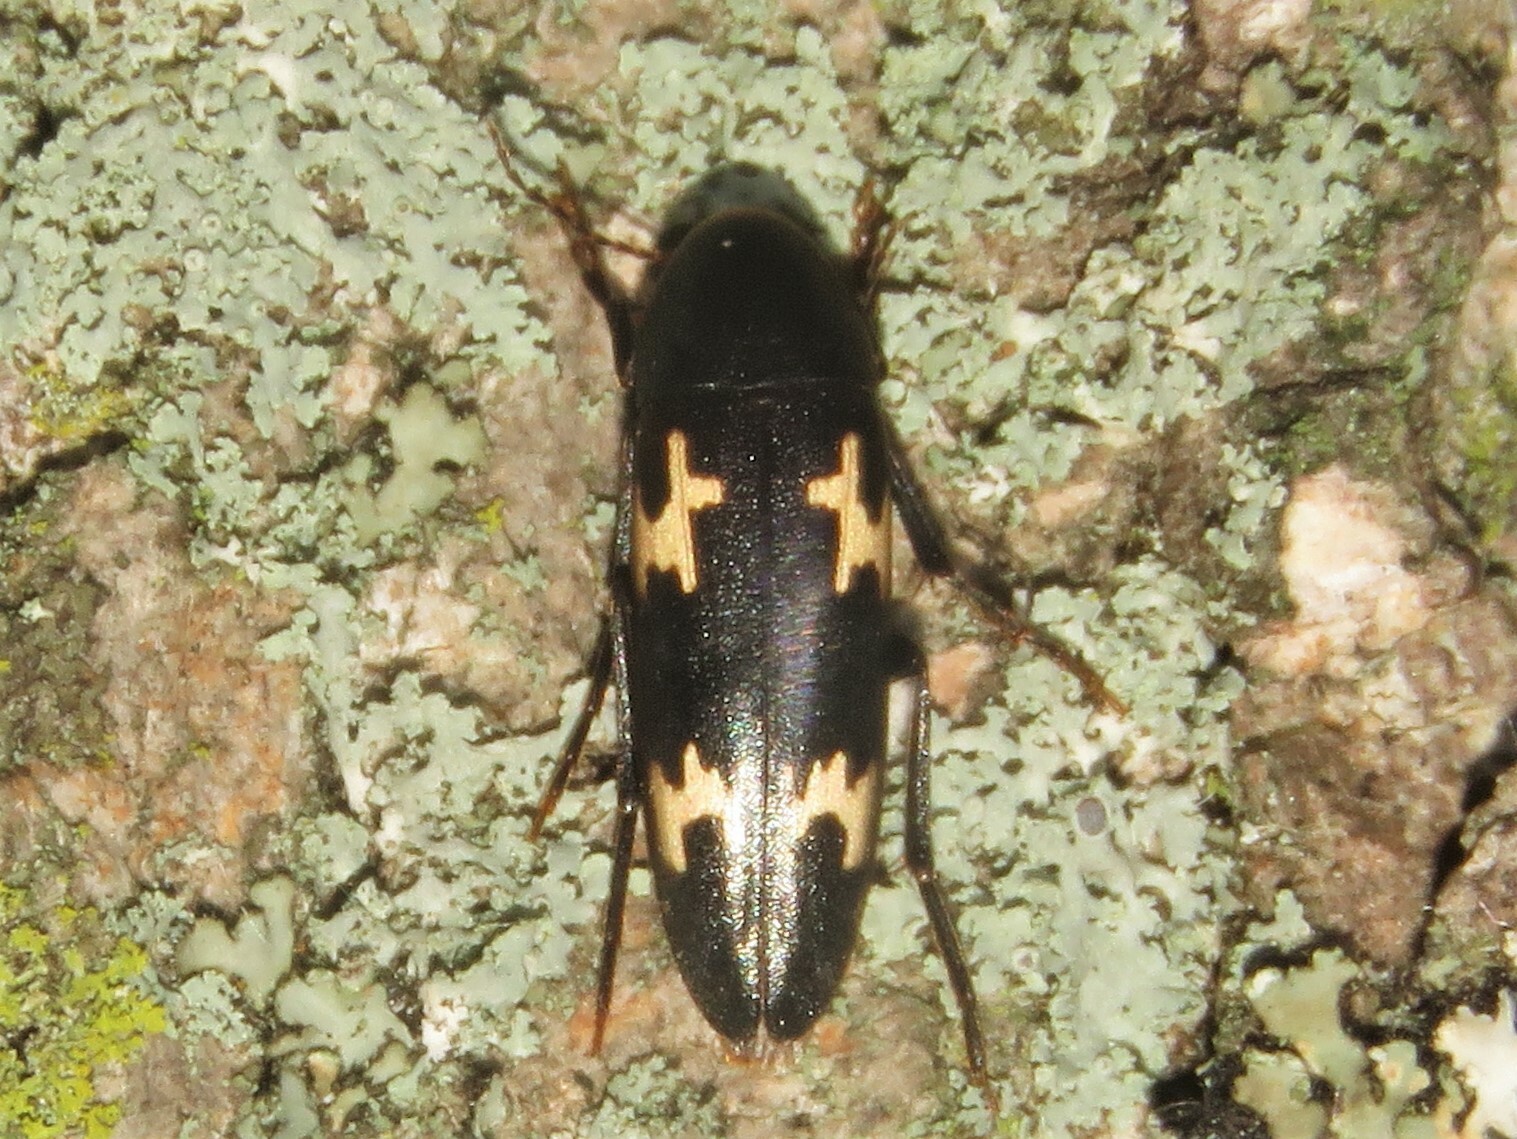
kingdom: Animalia
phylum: Arthropoda
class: Insecta
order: Coleoptera
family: Melandryidae
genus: Dircaea
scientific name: Dircaea liturata
